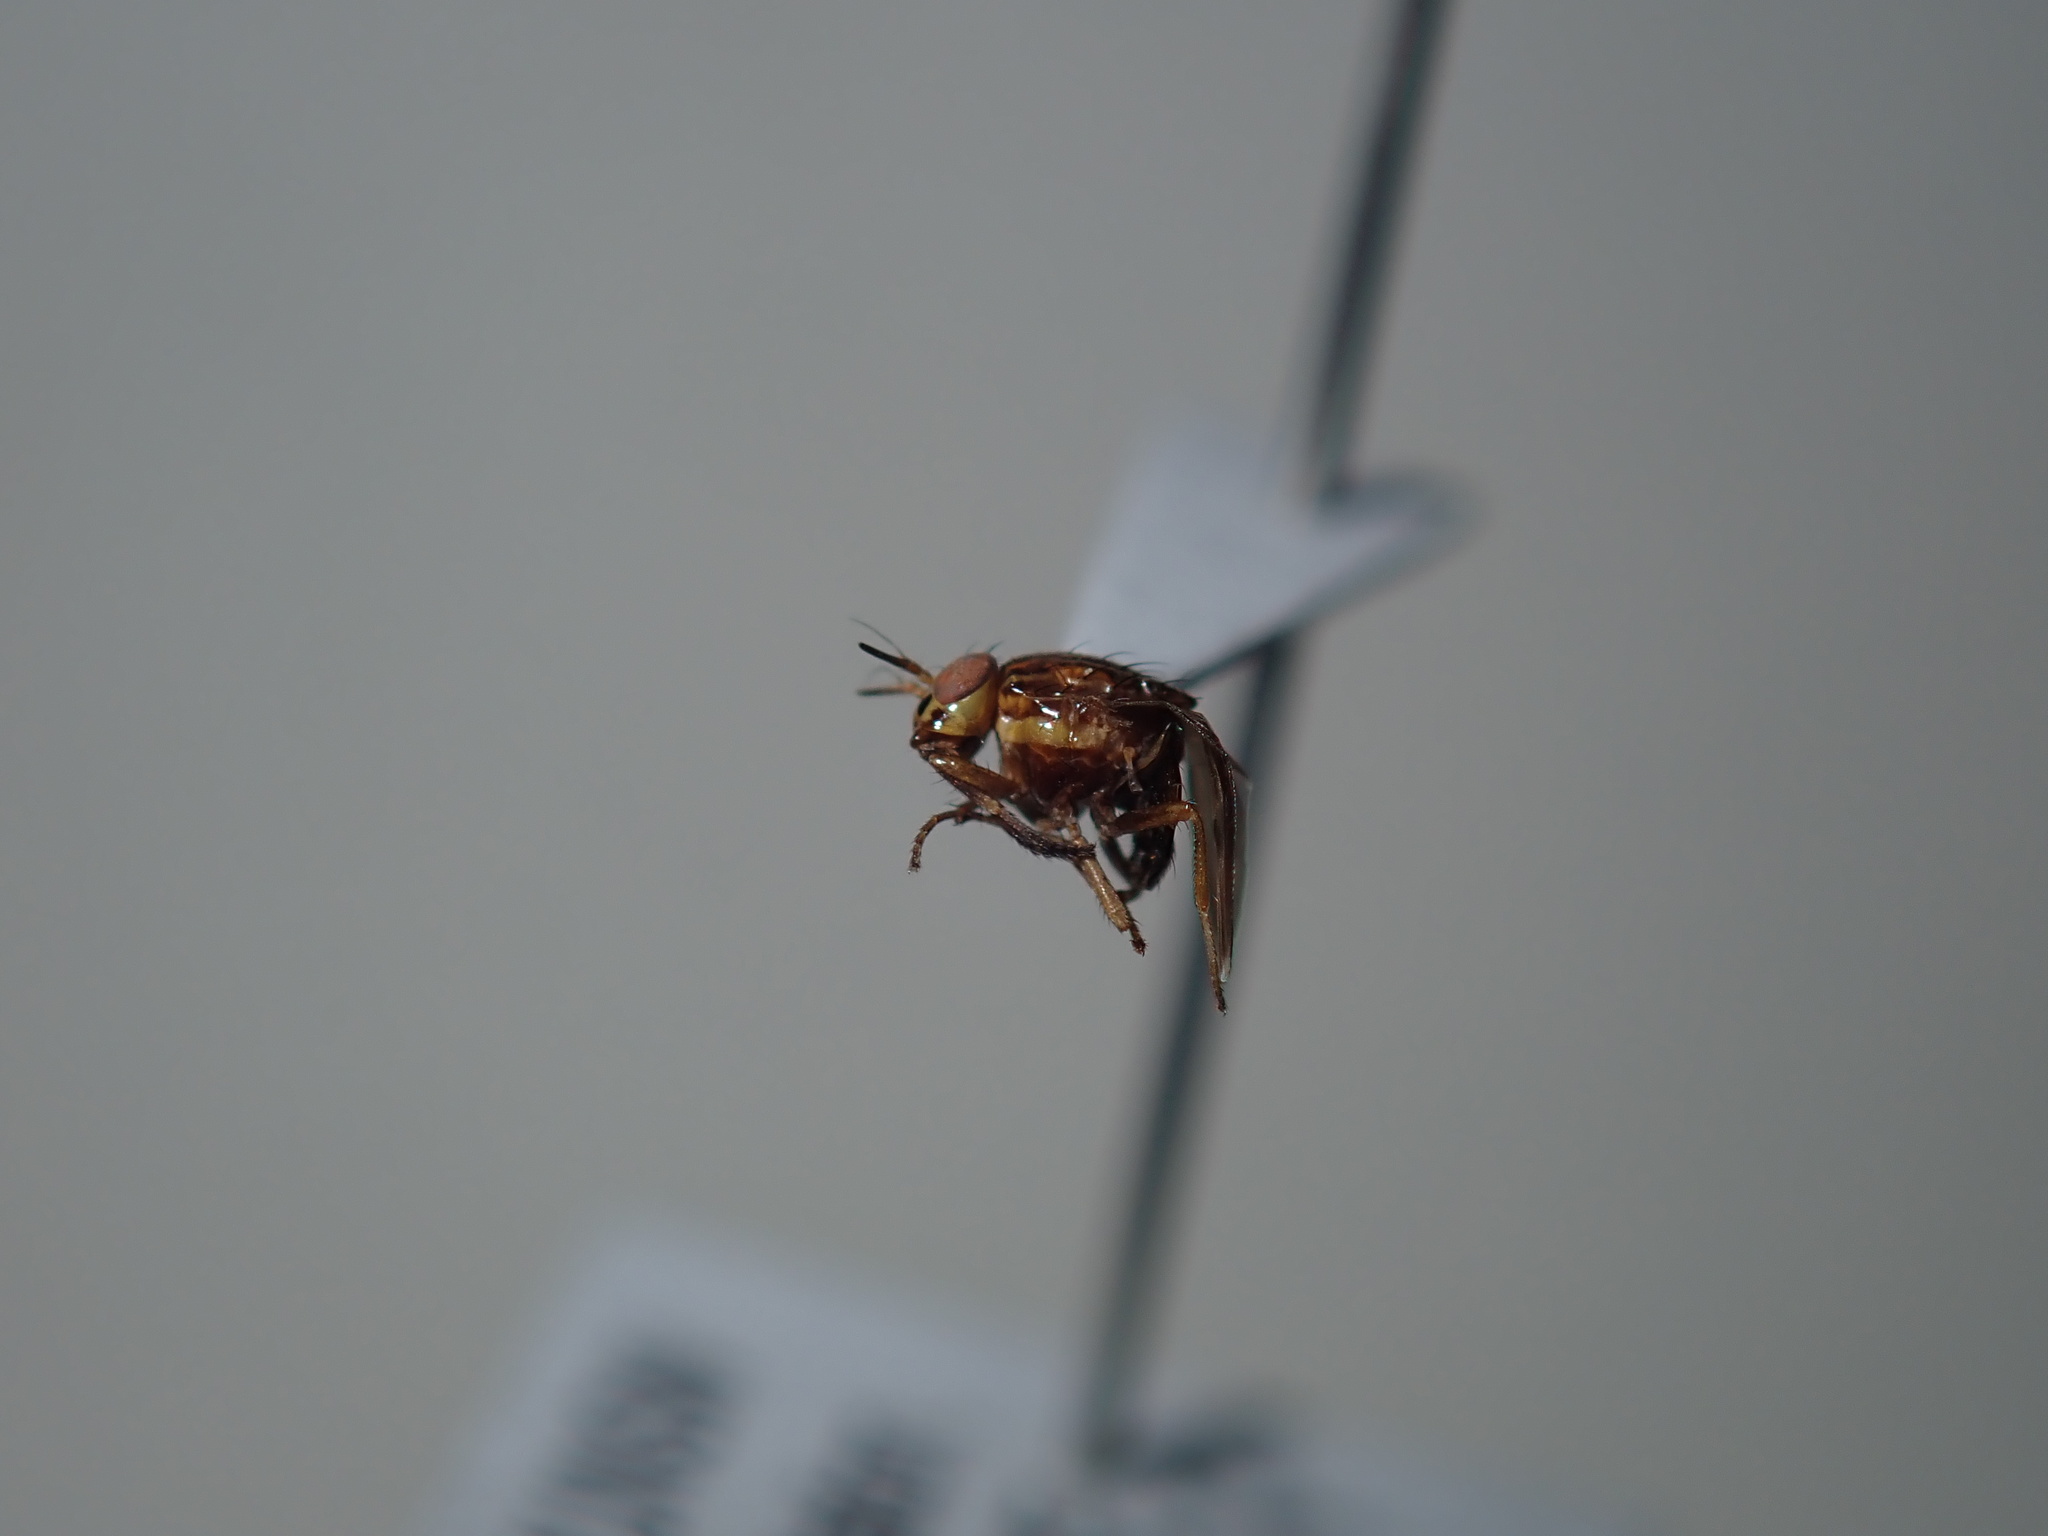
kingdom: Animalia
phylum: Arthropoda
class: Insecta
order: Diptera
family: Lauxaniidae
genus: Steganopsis
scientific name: Steganopsis melanogaster
